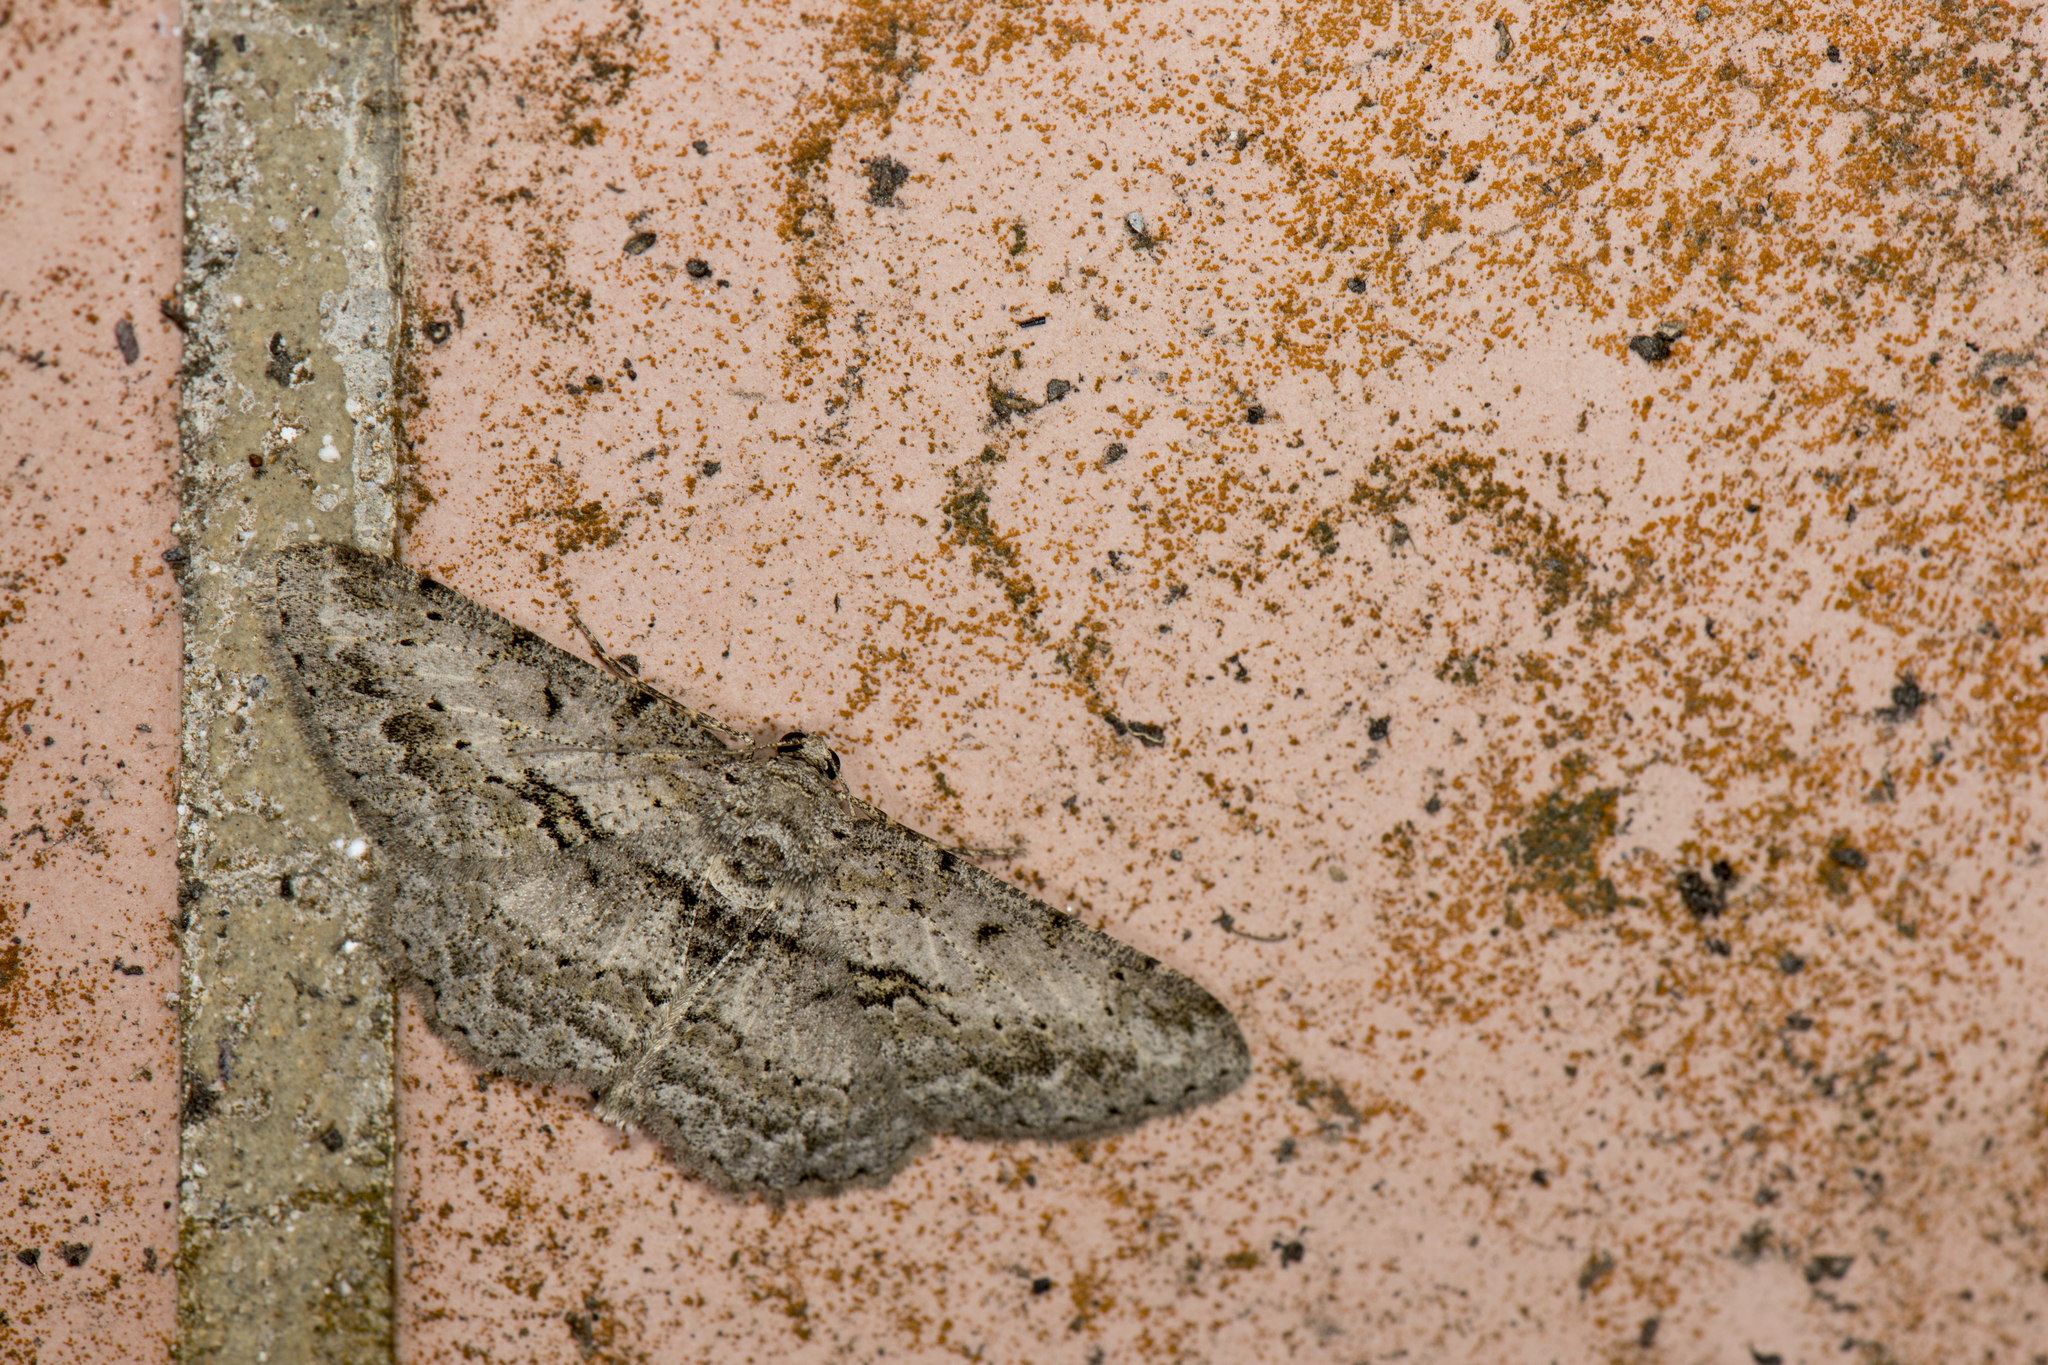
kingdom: Animalia
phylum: Arthropoda
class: Insecta
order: Lepidoptera
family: Geometridae
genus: Psilalcis
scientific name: Psilalcis breta
